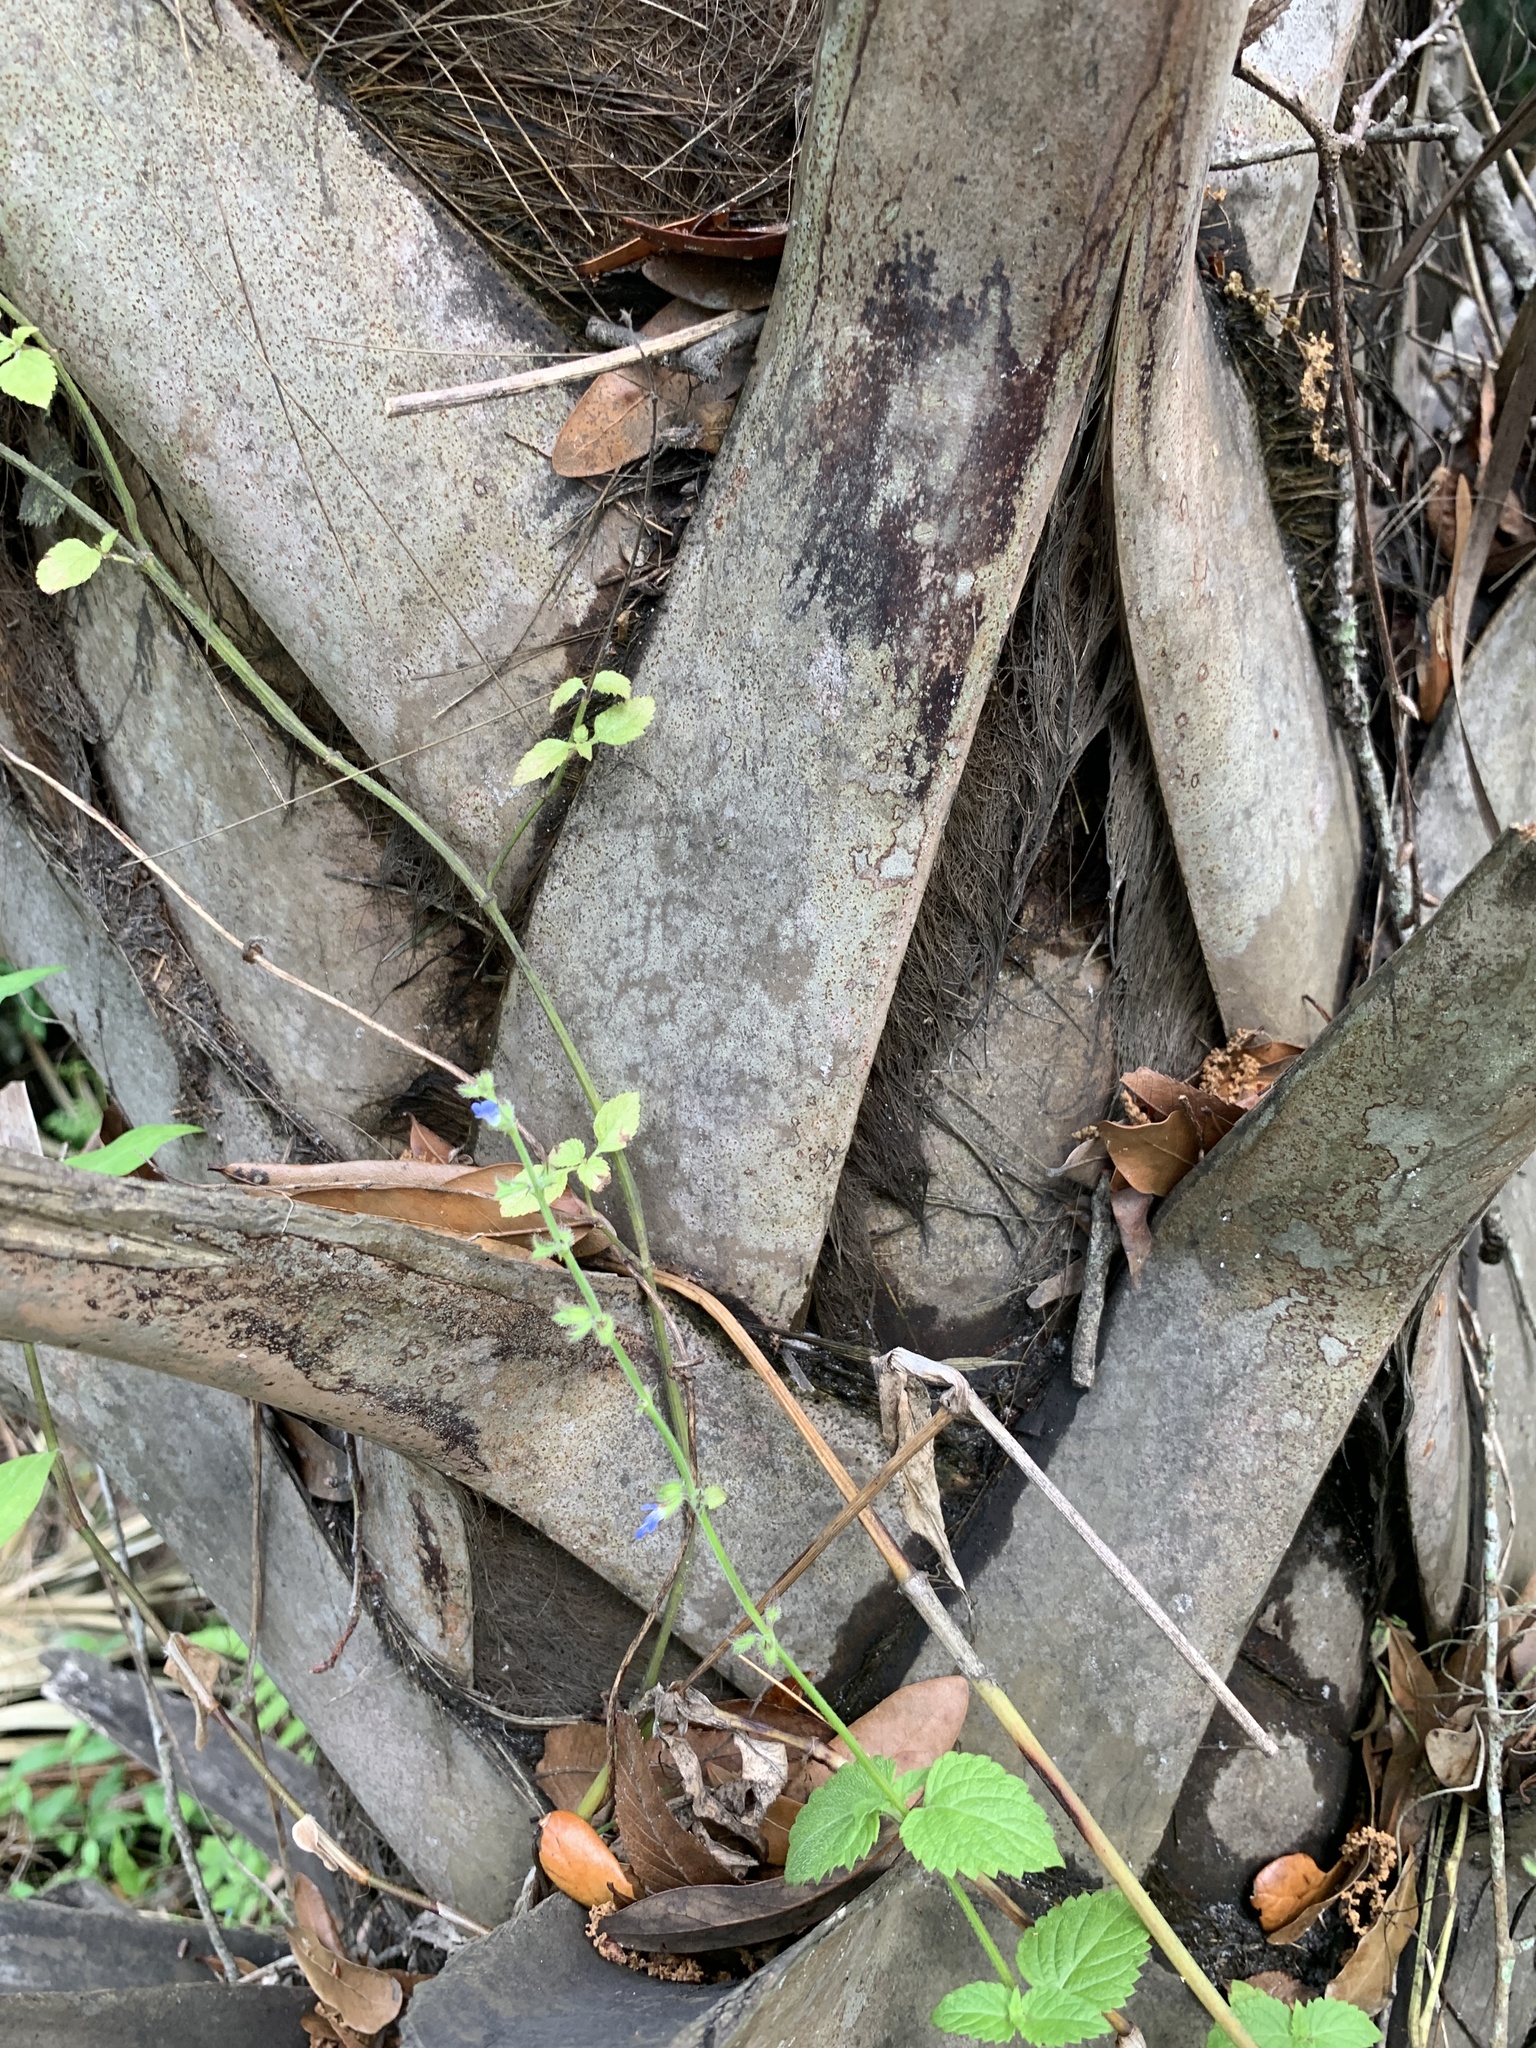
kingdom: Plantae
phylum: Tracheophyta
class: Magnoliopsida
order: Lamiales
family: Lamiaceae
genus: Salvia
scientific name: Salvia misella
